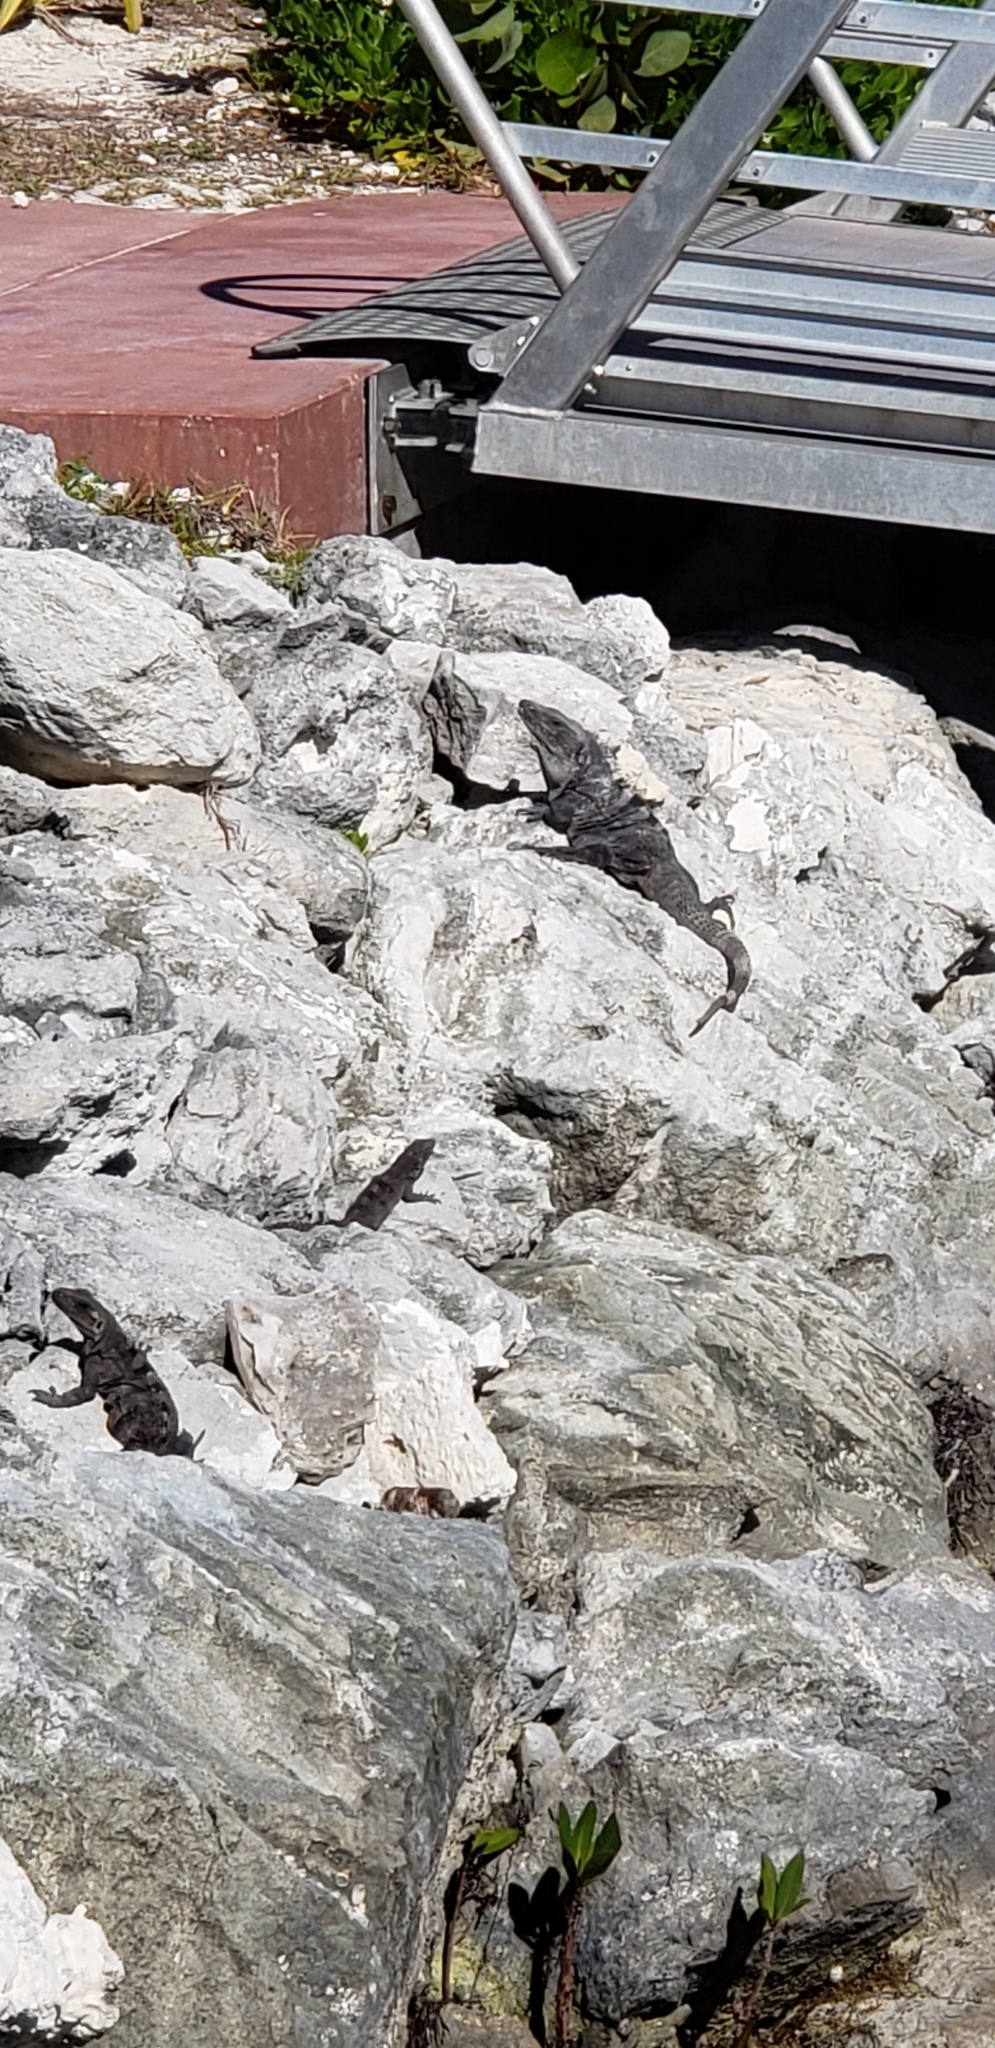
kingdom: Animalia
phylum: Chordata
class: Squamata
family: Iguanidae
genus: Ctenosaura
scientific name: Ctenosaura similis
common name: Black spiny-tailed iguana
